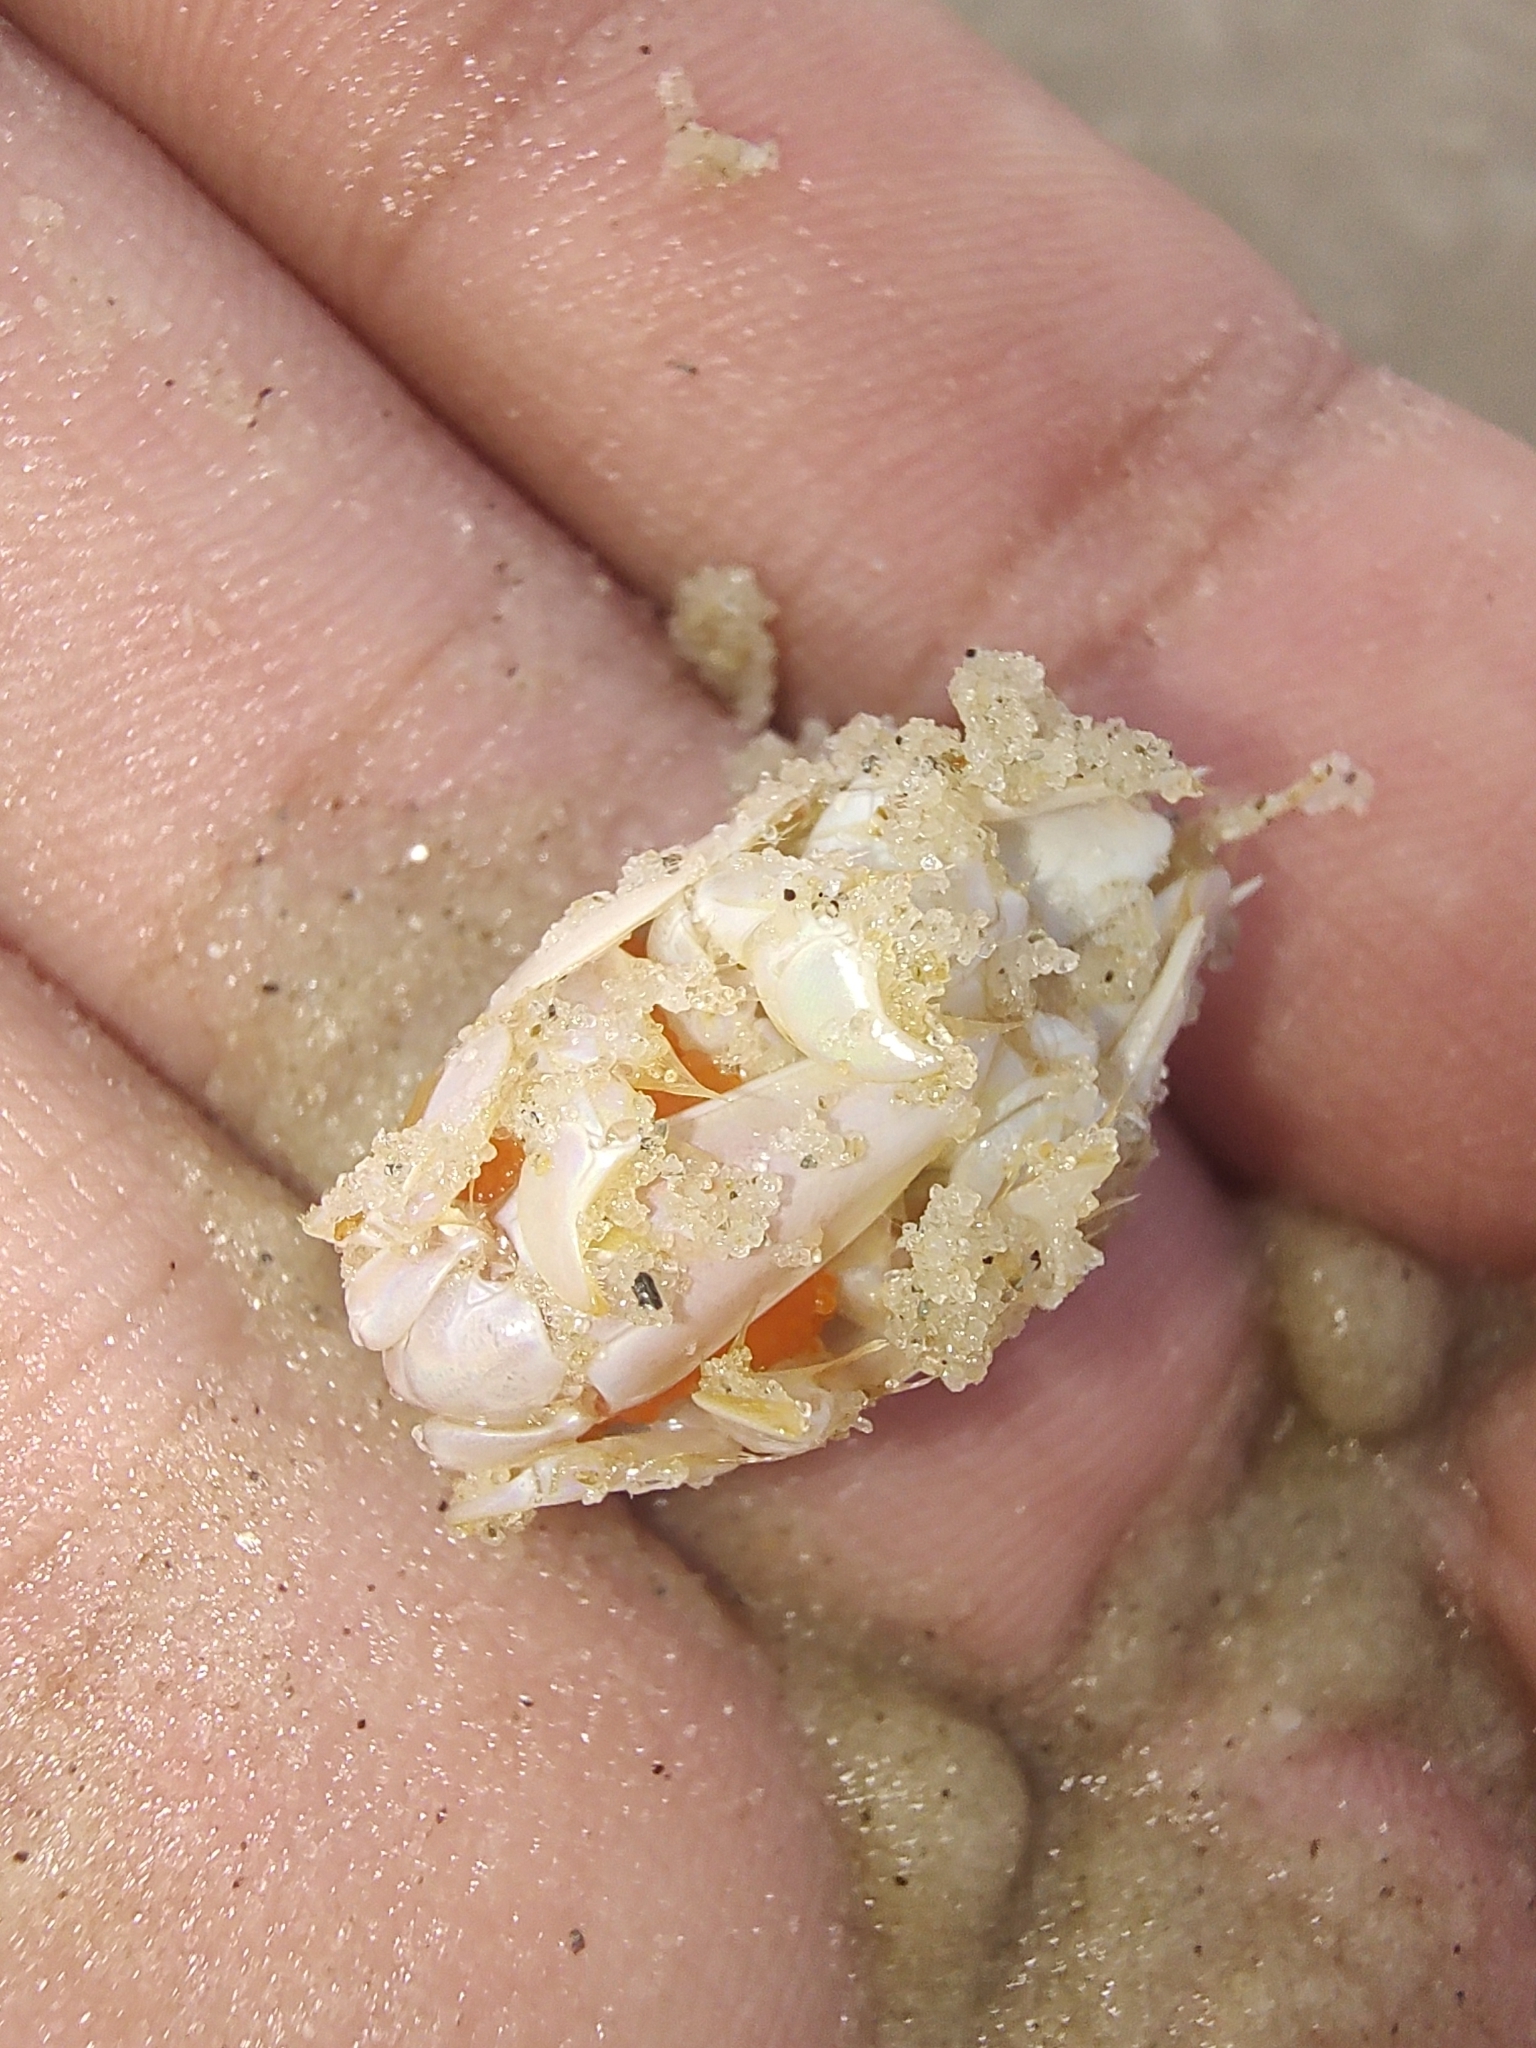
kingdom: Animalia
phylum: Arthropoda
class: Malacostraca
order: Decapoda
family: Hippidae
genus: Emerita
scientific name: Emerita brasiliensis
